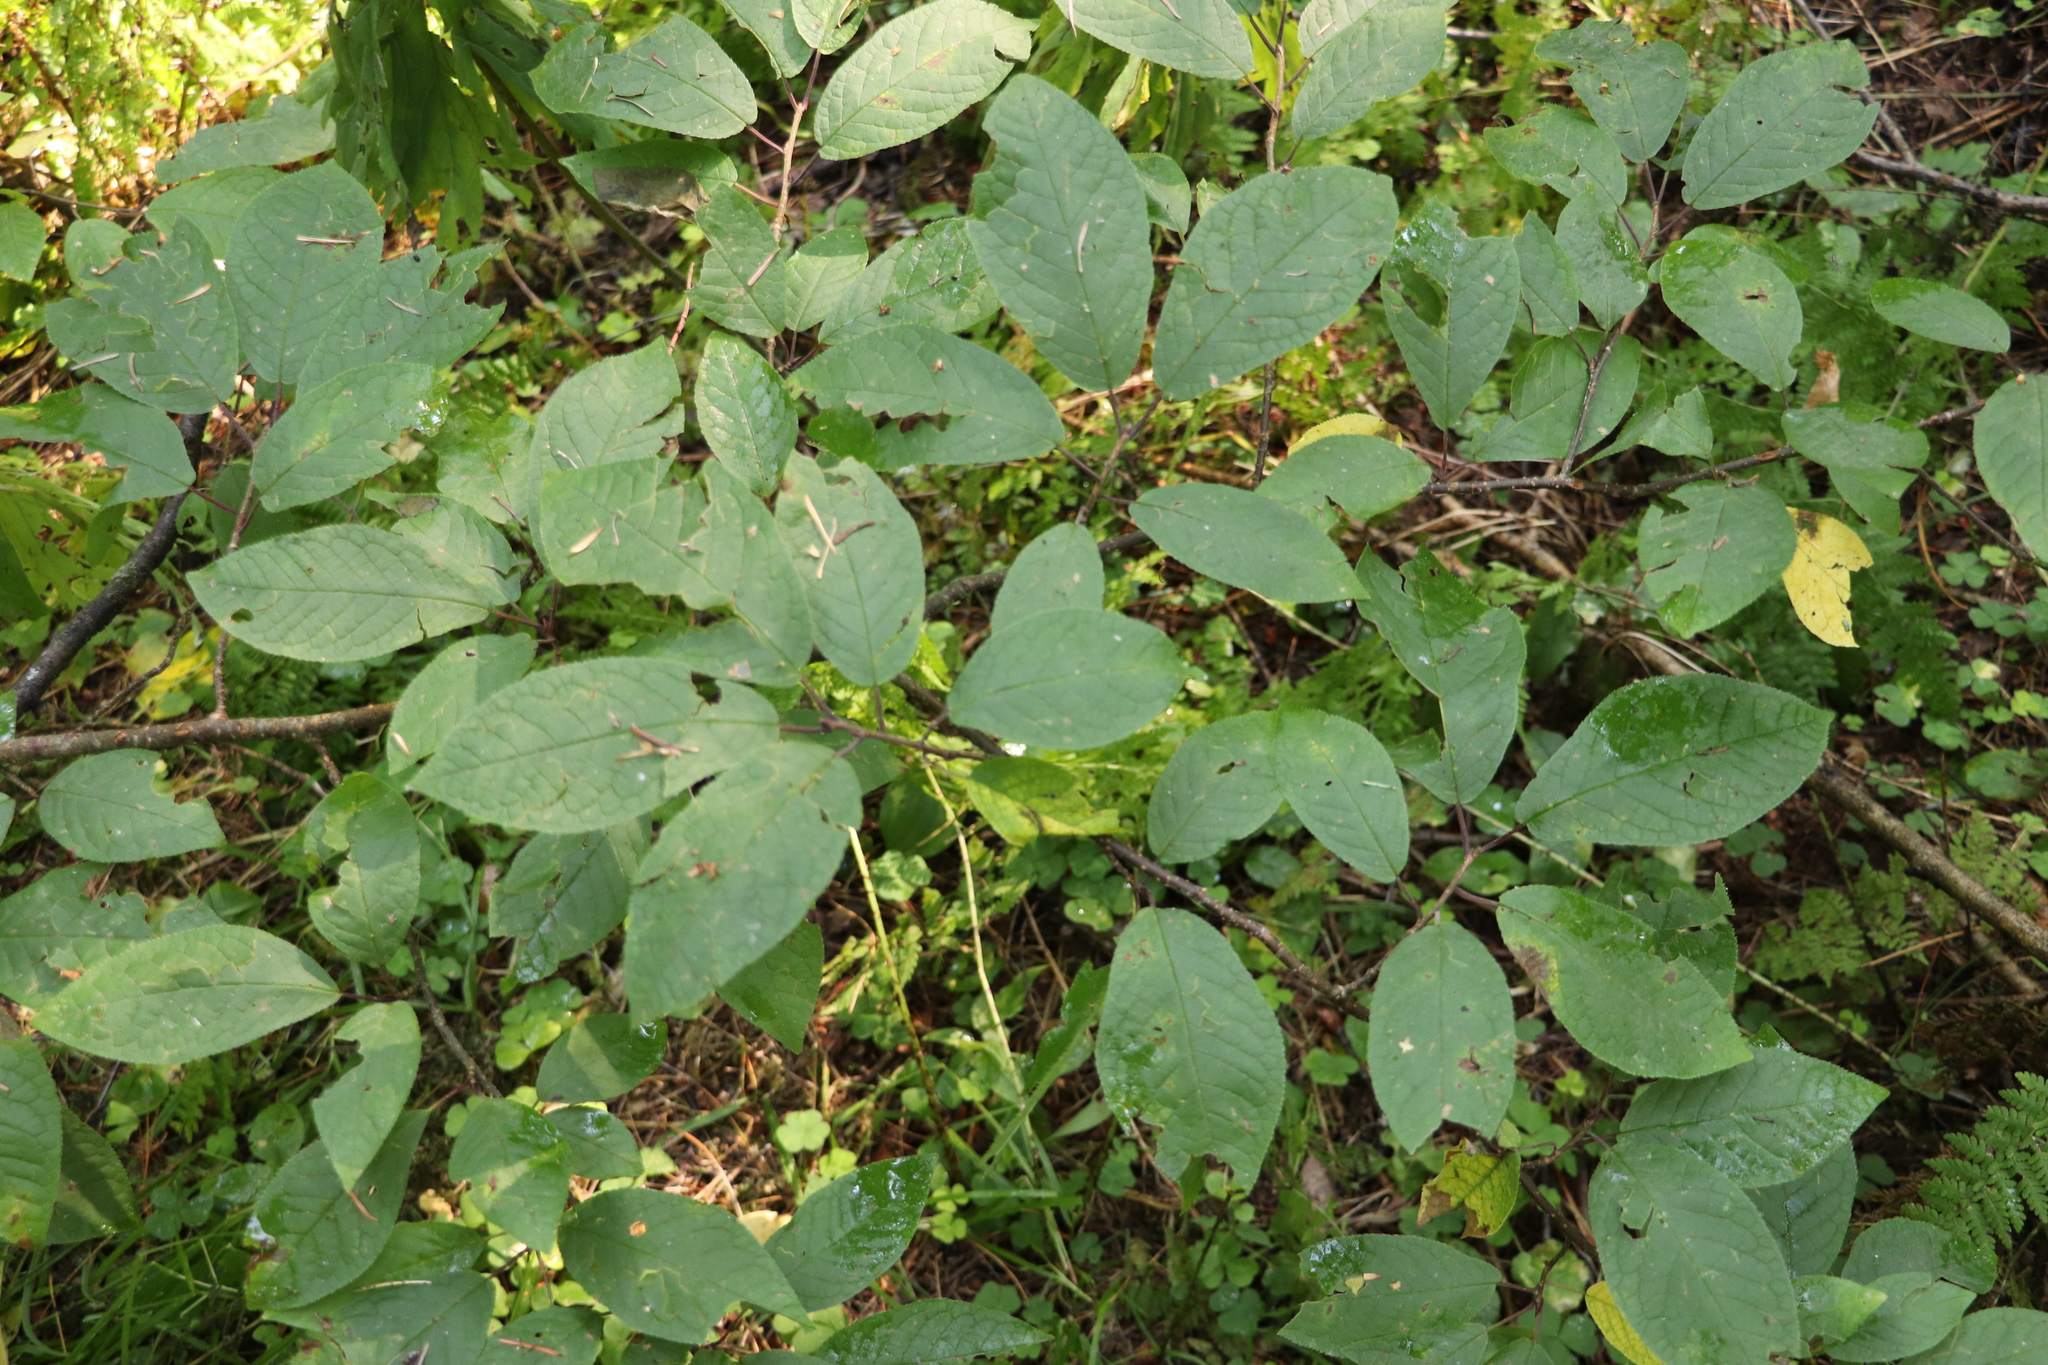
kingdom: Plantae
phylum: Tracheophyta
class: Magnoliopsida
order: Rosales
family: Rosaceae
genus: Prunus
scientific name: Prunus padus
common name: Bird cherry
